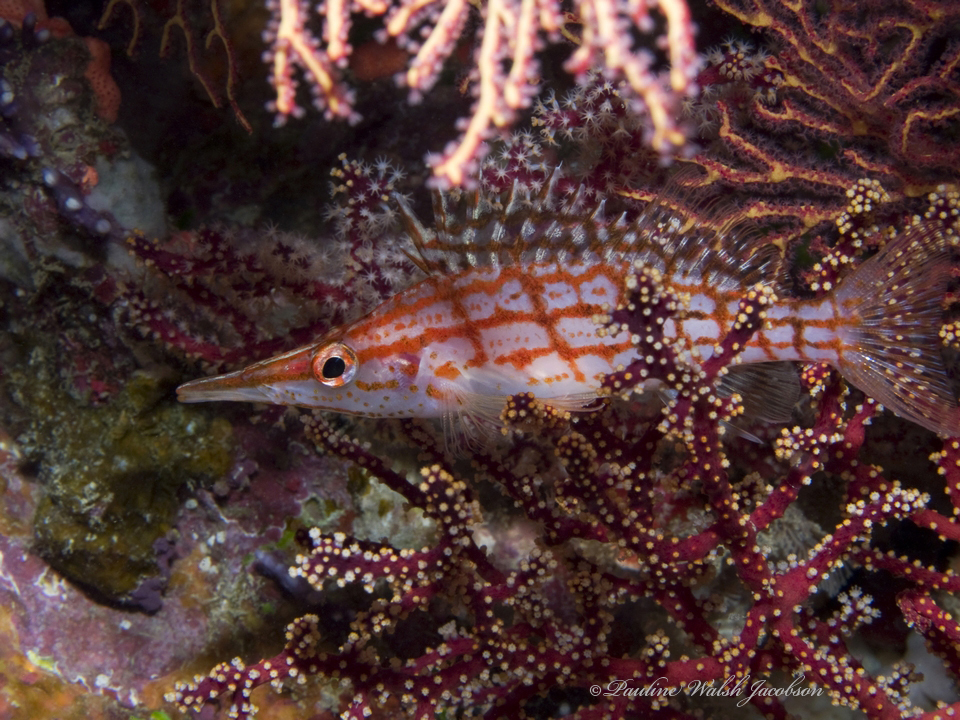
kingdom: Animalia
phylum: Chordata
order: Perciformes
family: Cirrhitidae
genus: Oxycirrhites
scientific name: Oxycirrhites typus
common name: Longnose hawkfish
